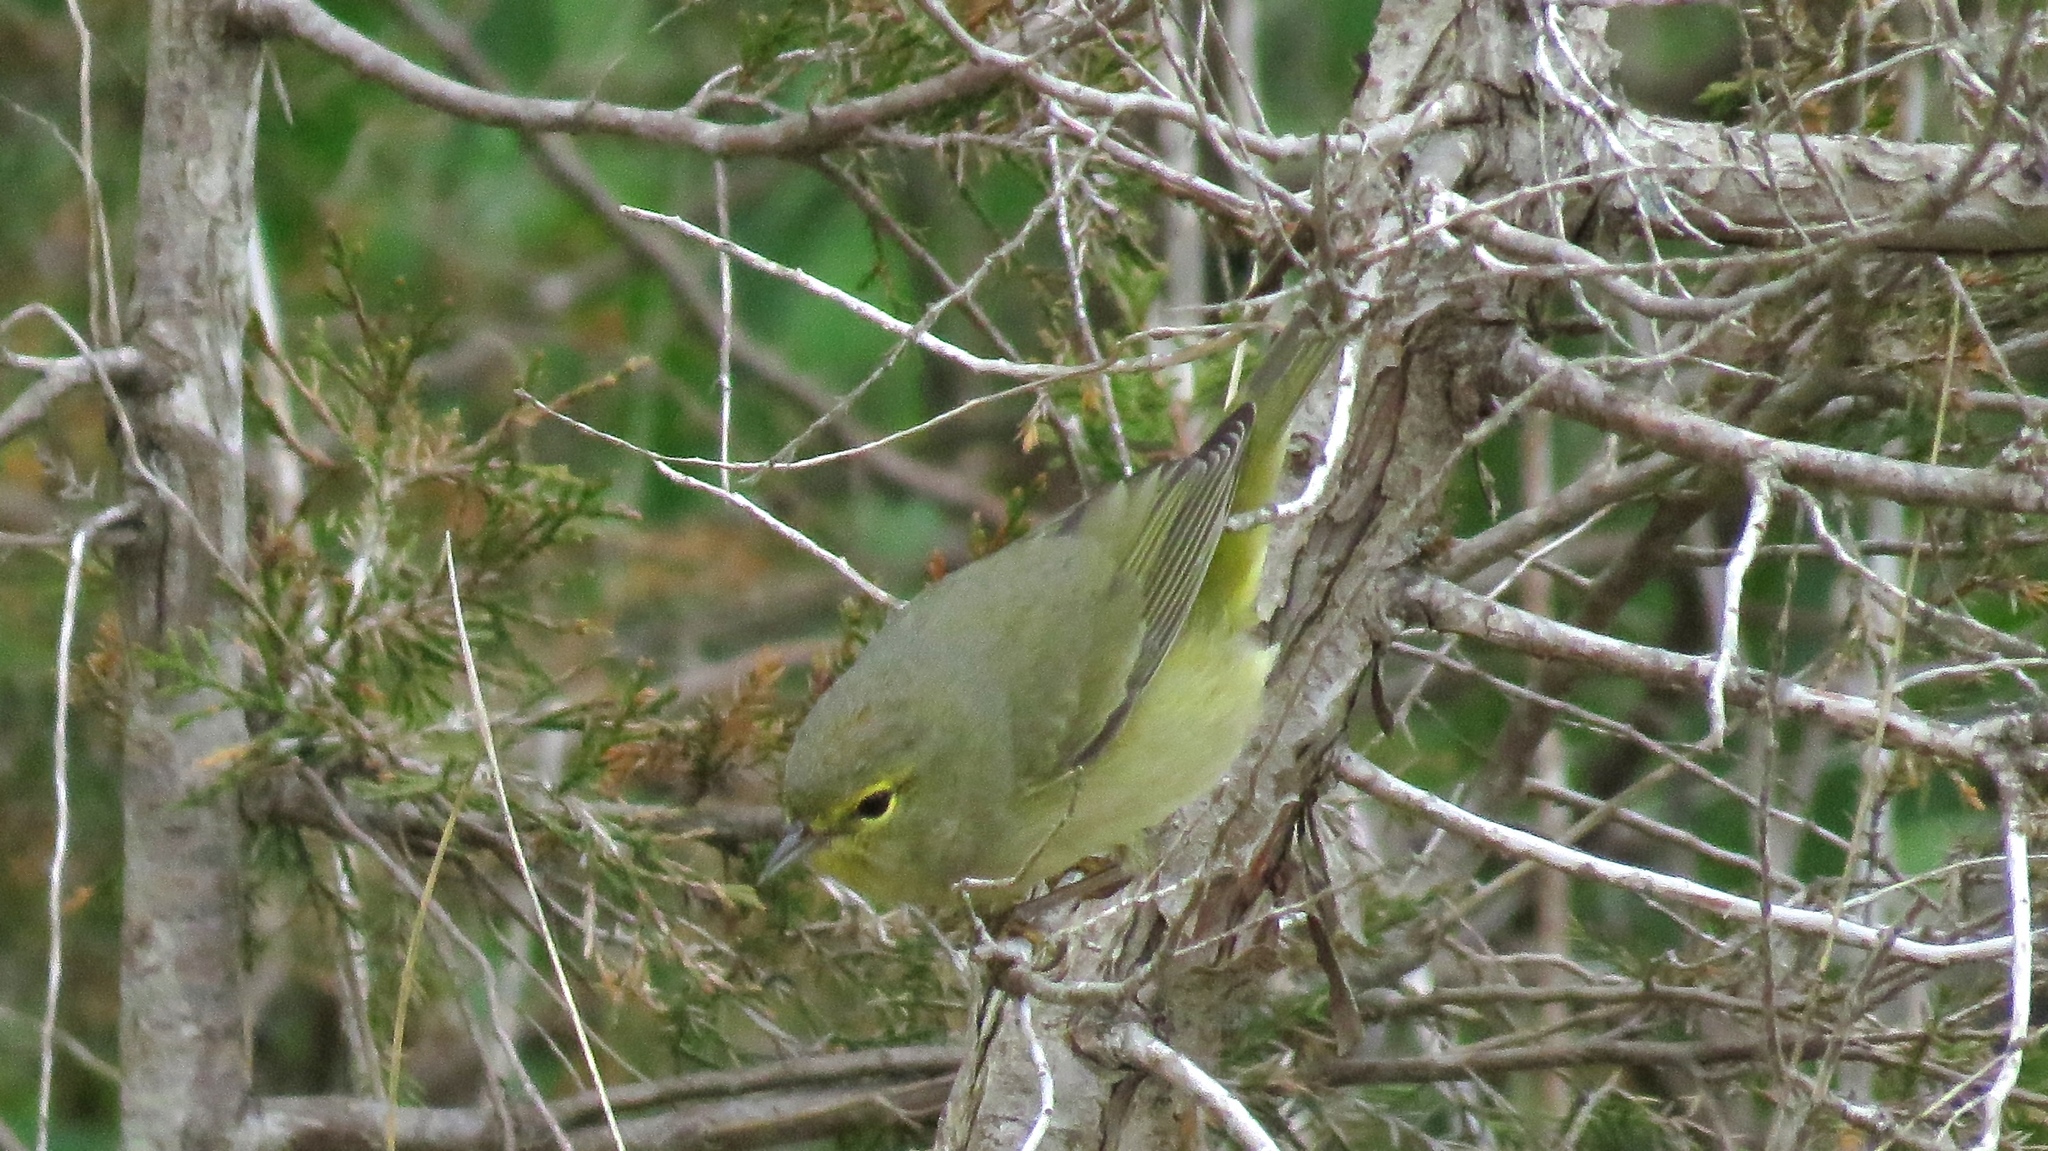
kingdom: Animalia
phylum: Chordata
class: Aves
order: Passeriformes
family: Parulidae
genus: Leiothlypis
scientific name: Leiothlypis celata
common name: Orange-crowned warbler
